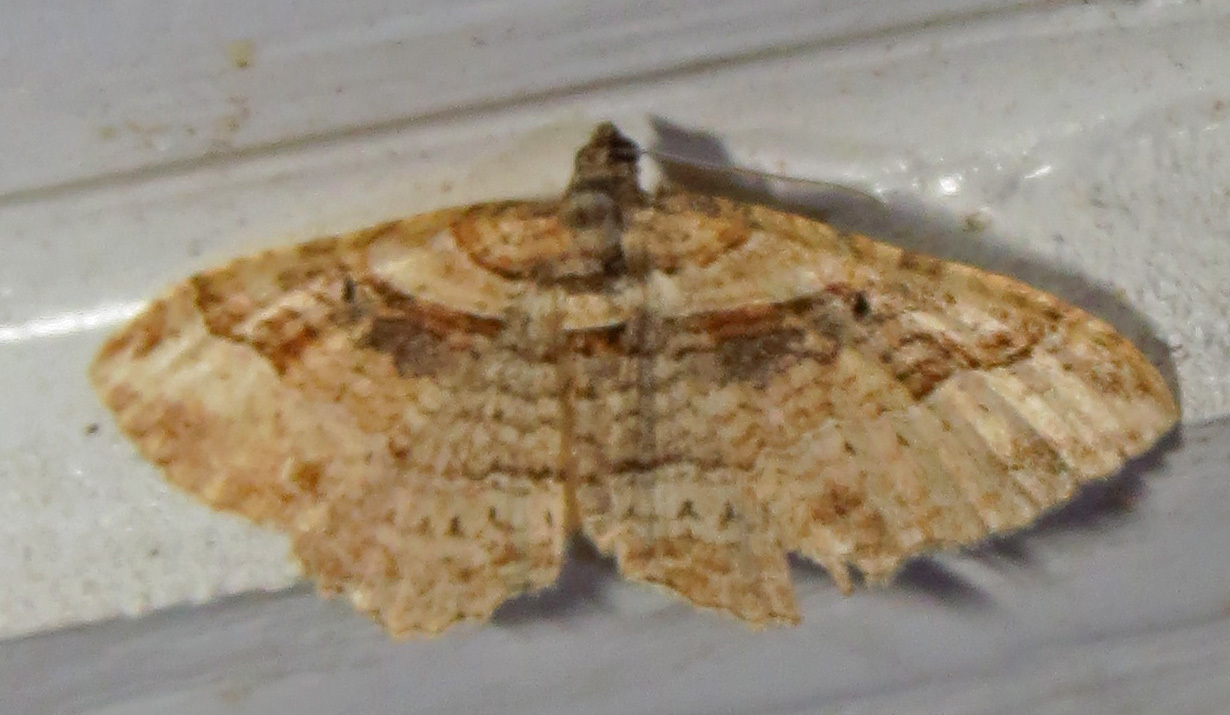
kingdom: Animalia
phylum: Arthropoda
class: Insecta
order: Lepidoptera
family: Geometridae
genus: Costaconvexa
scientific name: Costaconvexa centrostrigaria
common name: Bent-line carpet
